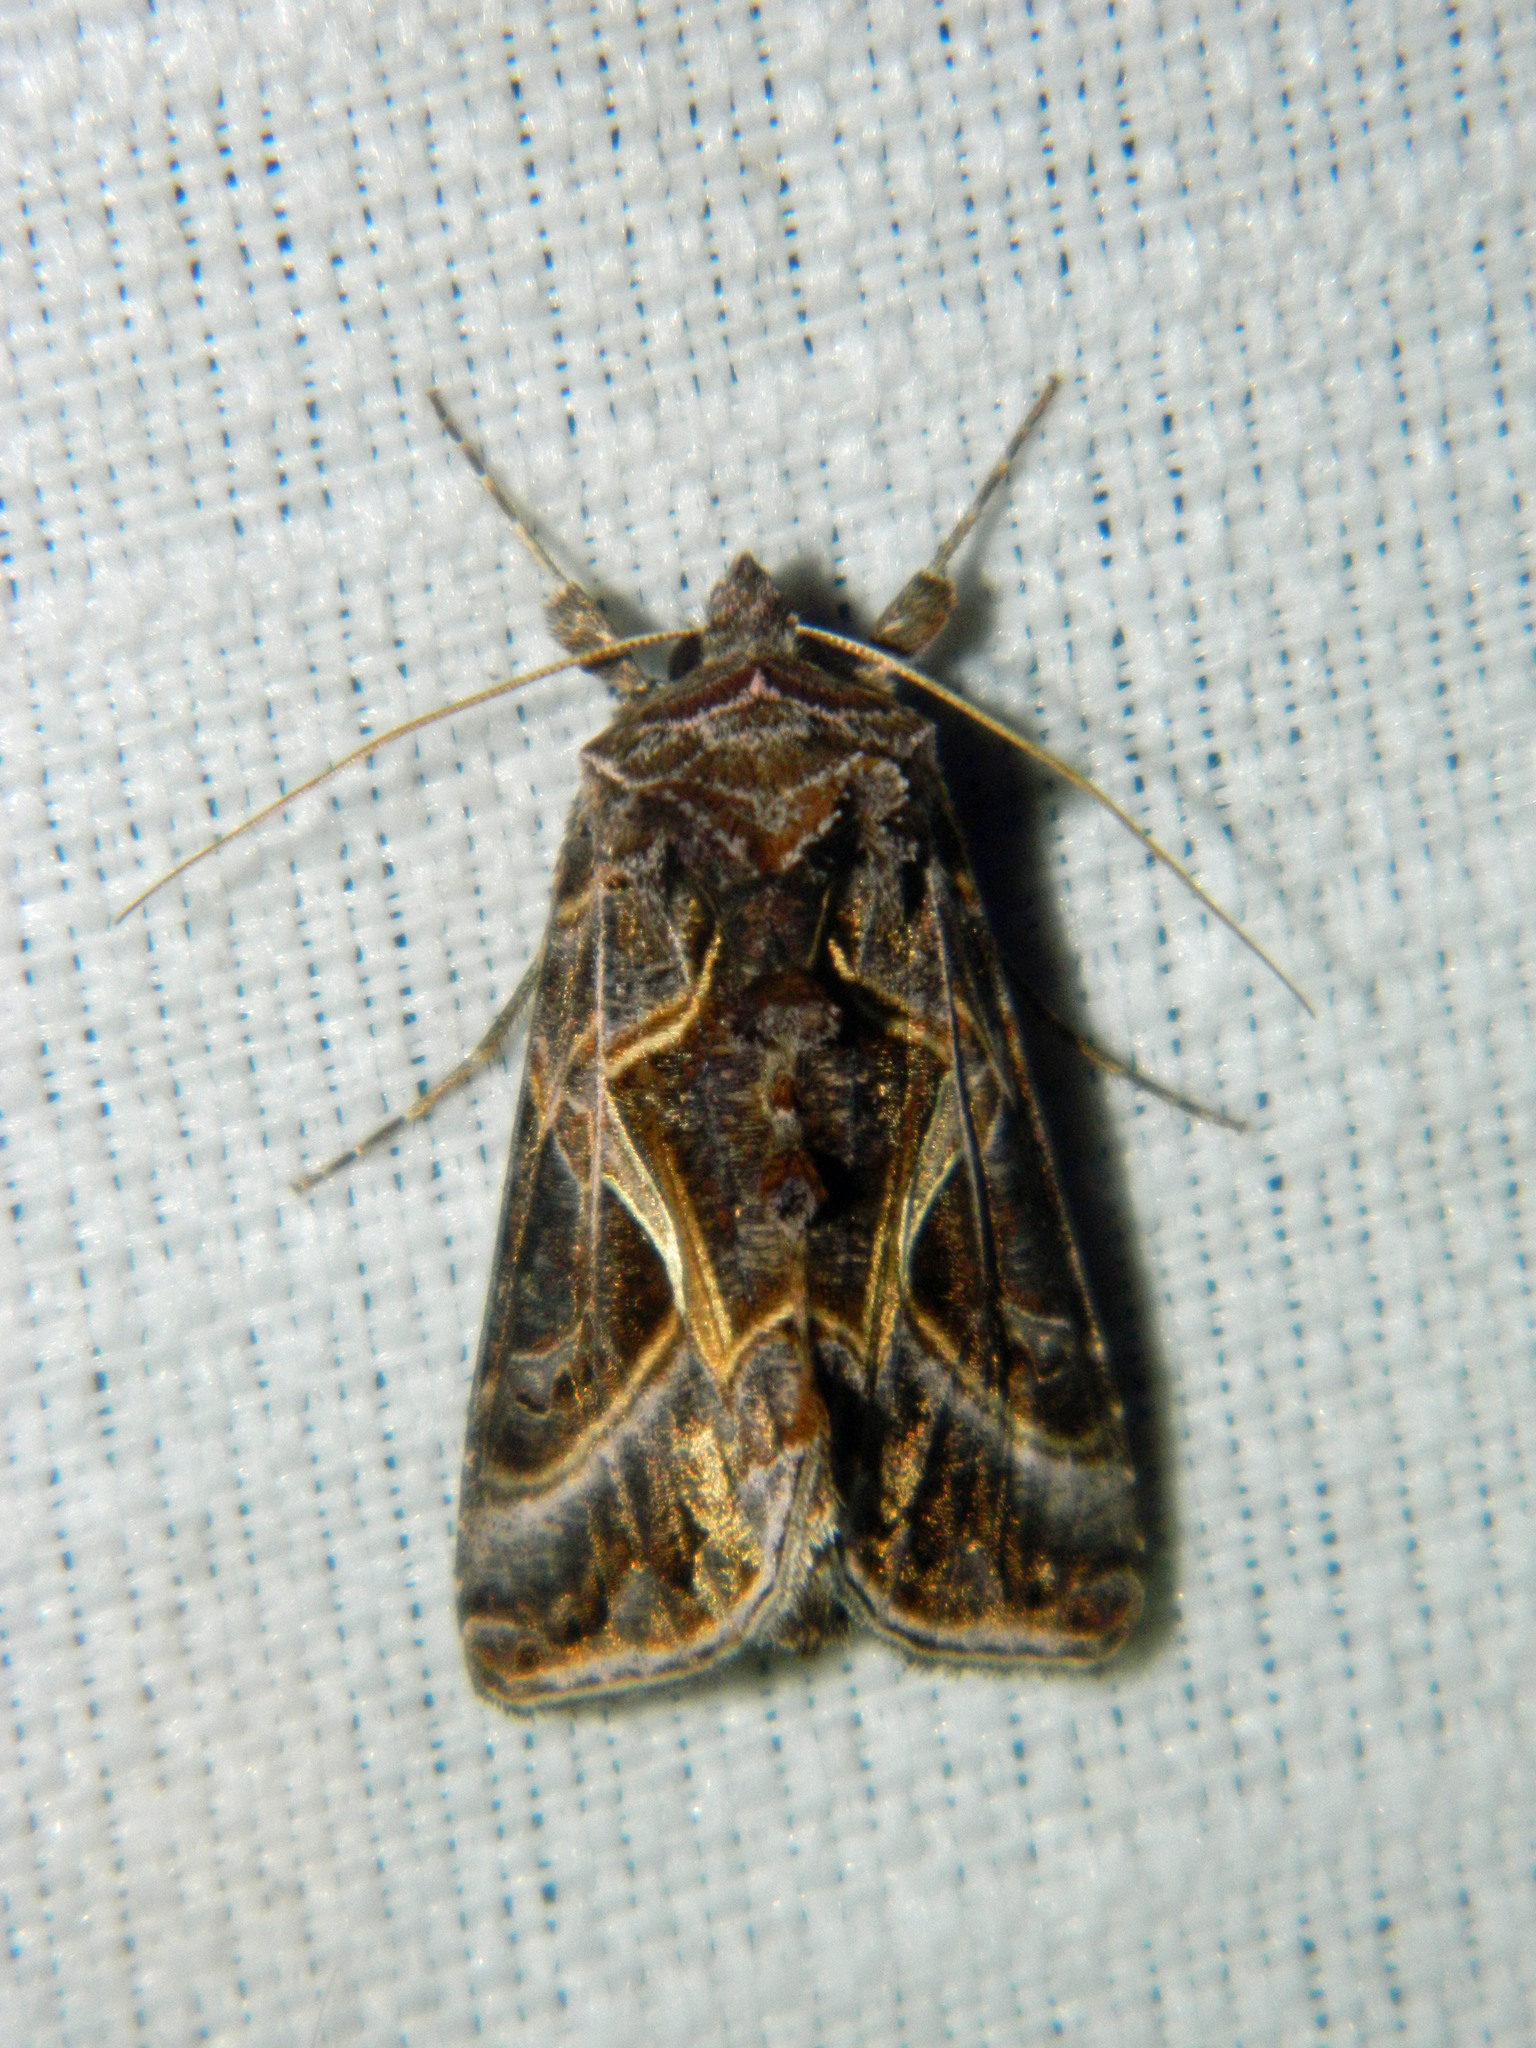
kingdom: Animalia
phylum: Arthropoda
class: Insecta
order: Lepidoptera
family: Noctuidae
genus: Autographa
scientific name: Autographa flagellum
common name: Silver whip moth
